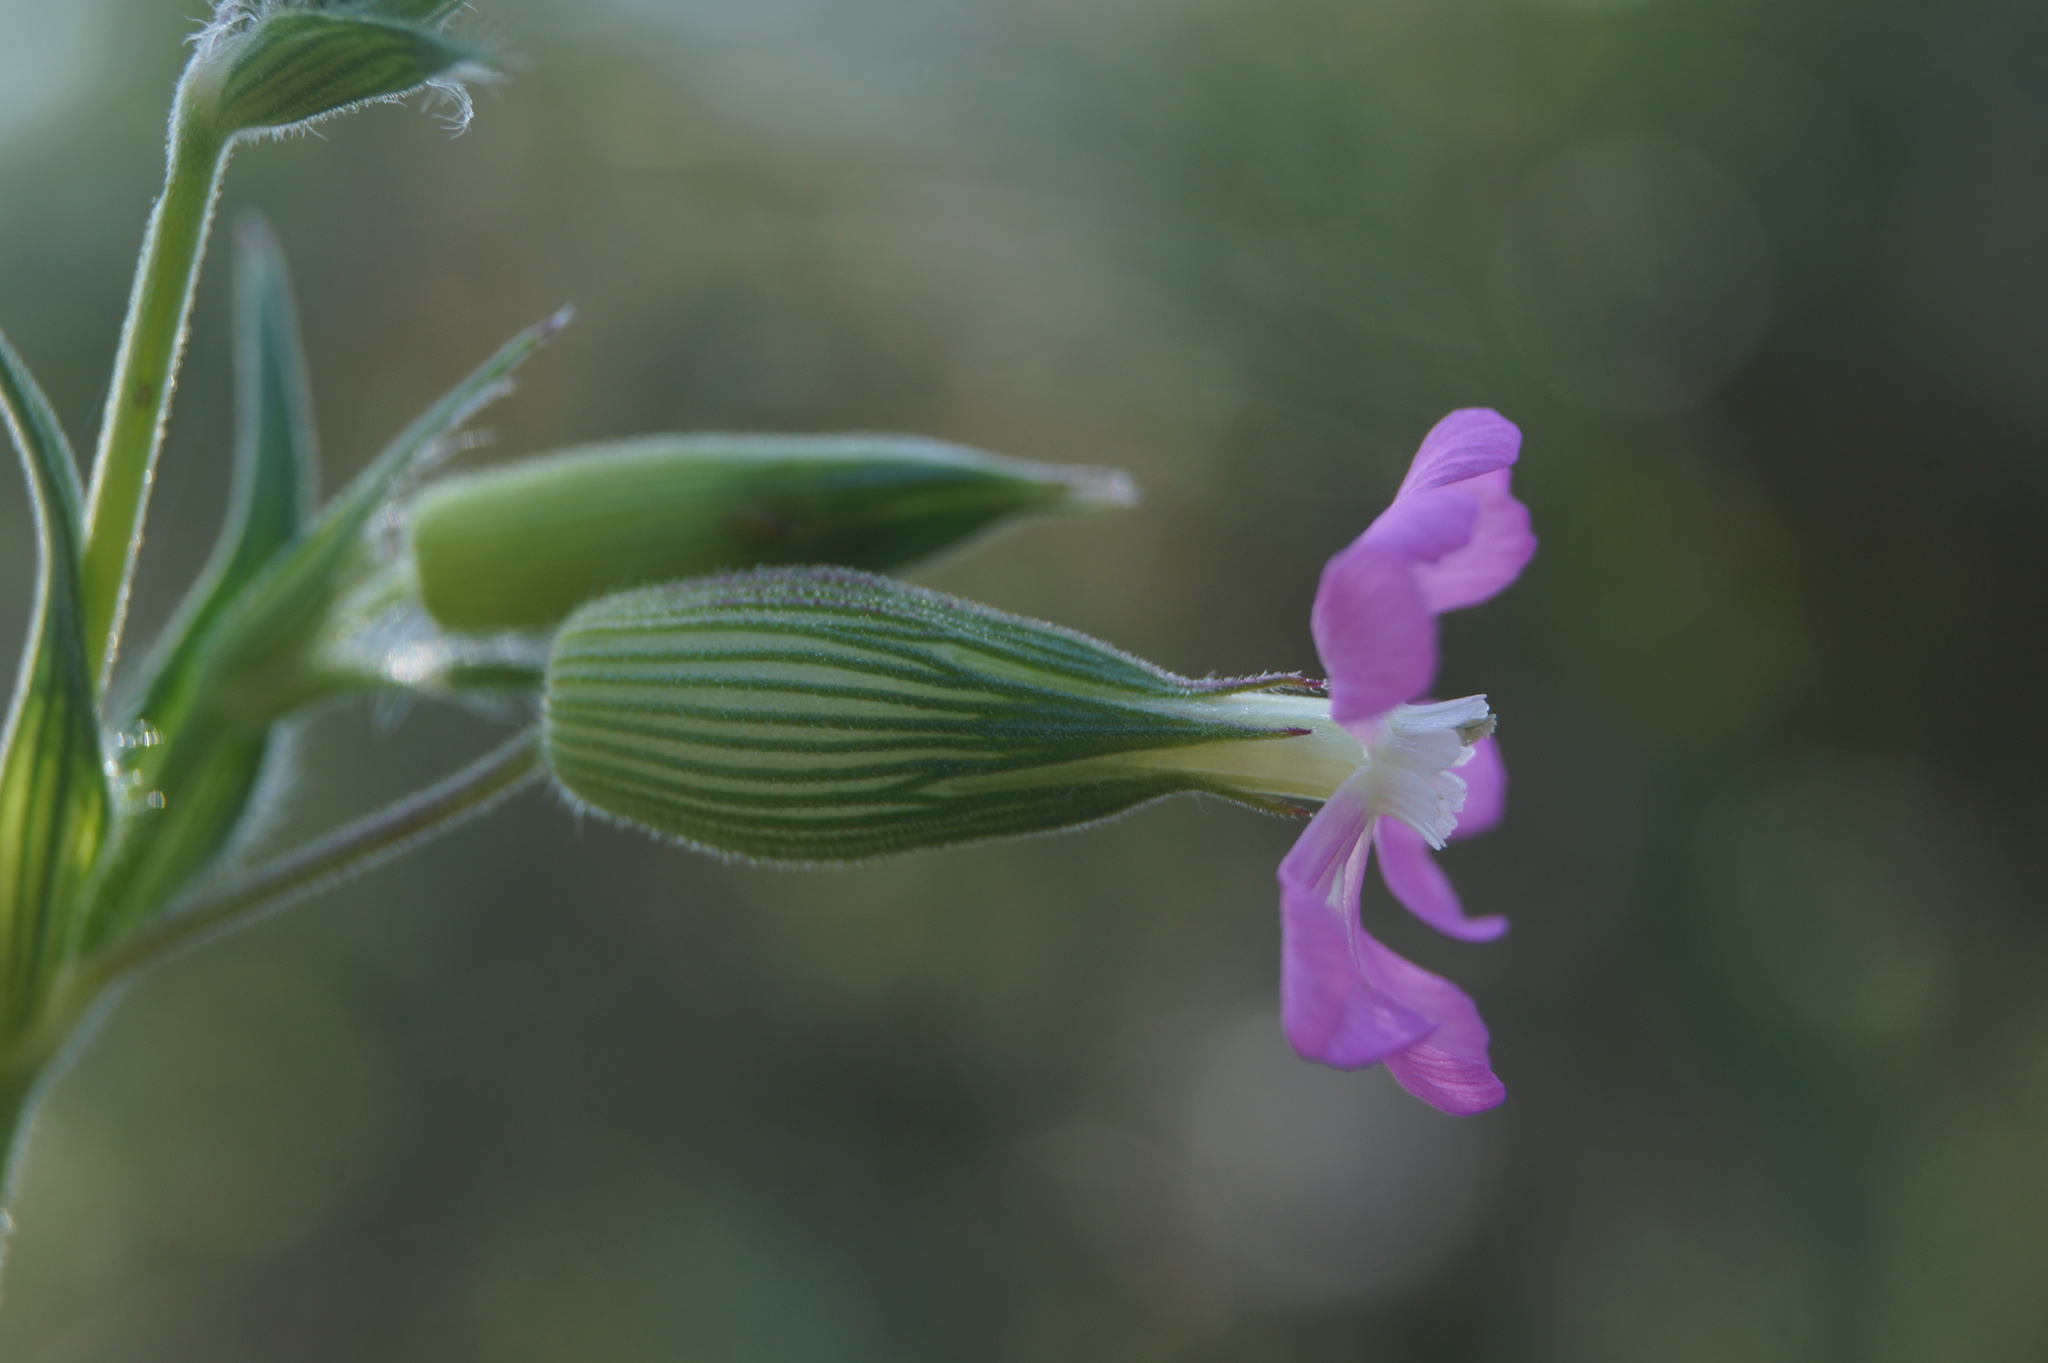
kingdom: Plantae
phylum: Tracheophyta
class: Magnoliopsida
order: Caryophyllales
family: Caryophyllaceae
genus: Silene
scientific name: Silene subconica
